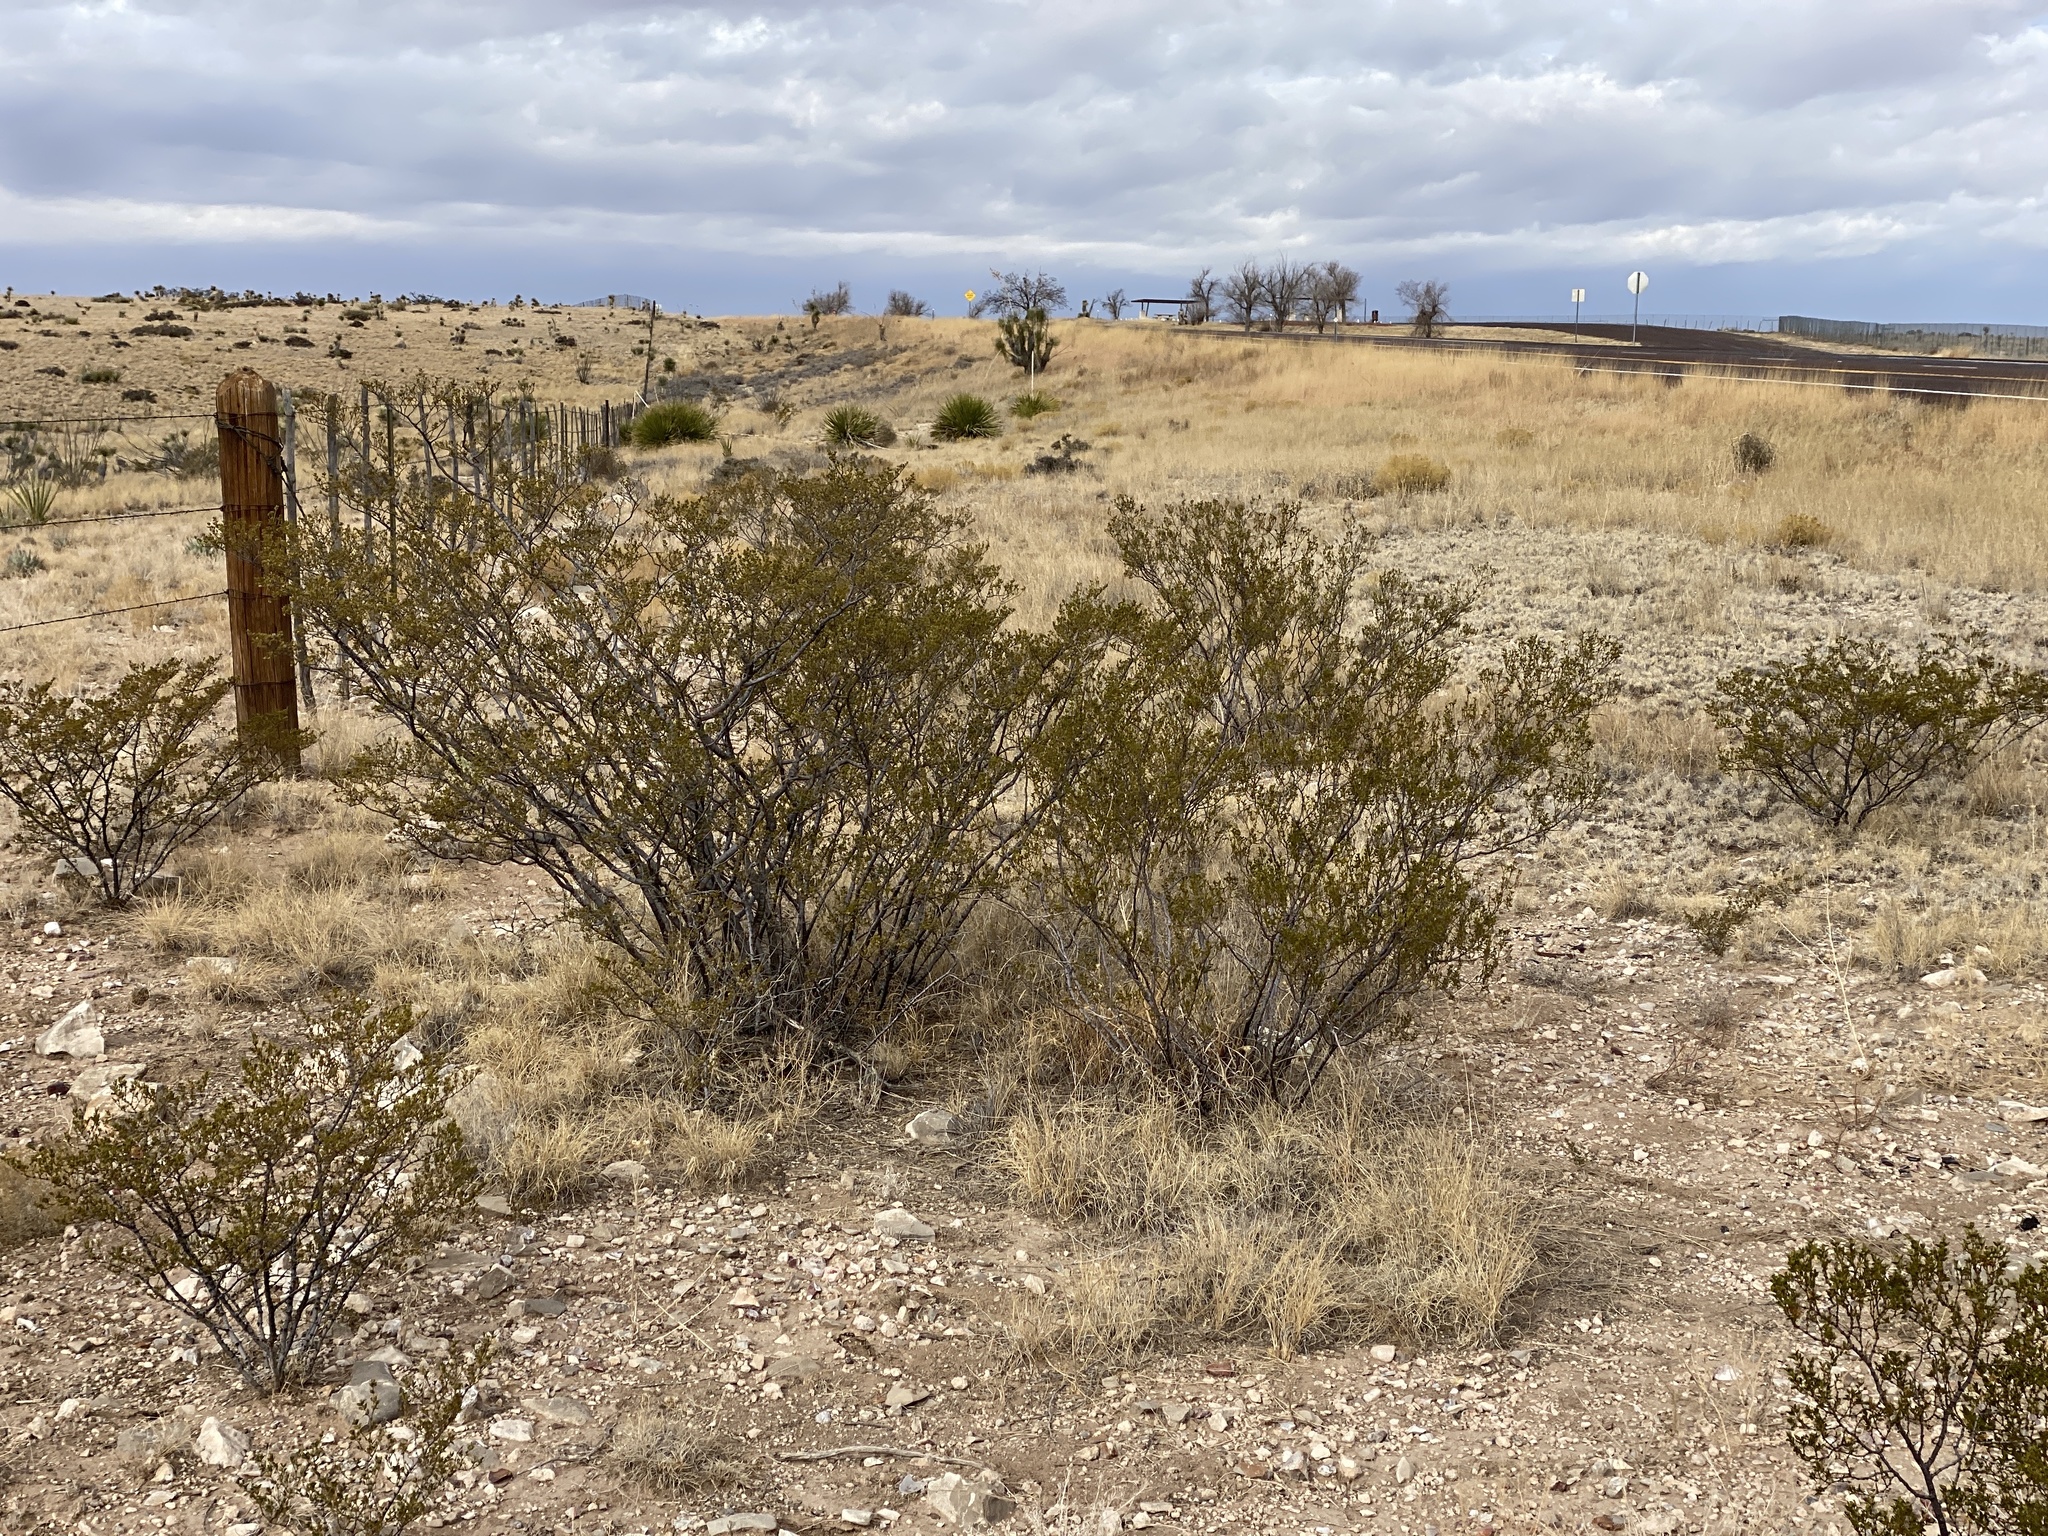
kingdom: Plantae
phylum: Tracheophyta
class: Magnoliopsida
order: Zygophyllales
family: Zygophyllaceae
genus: Larrea
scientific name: Larrea tridentata
